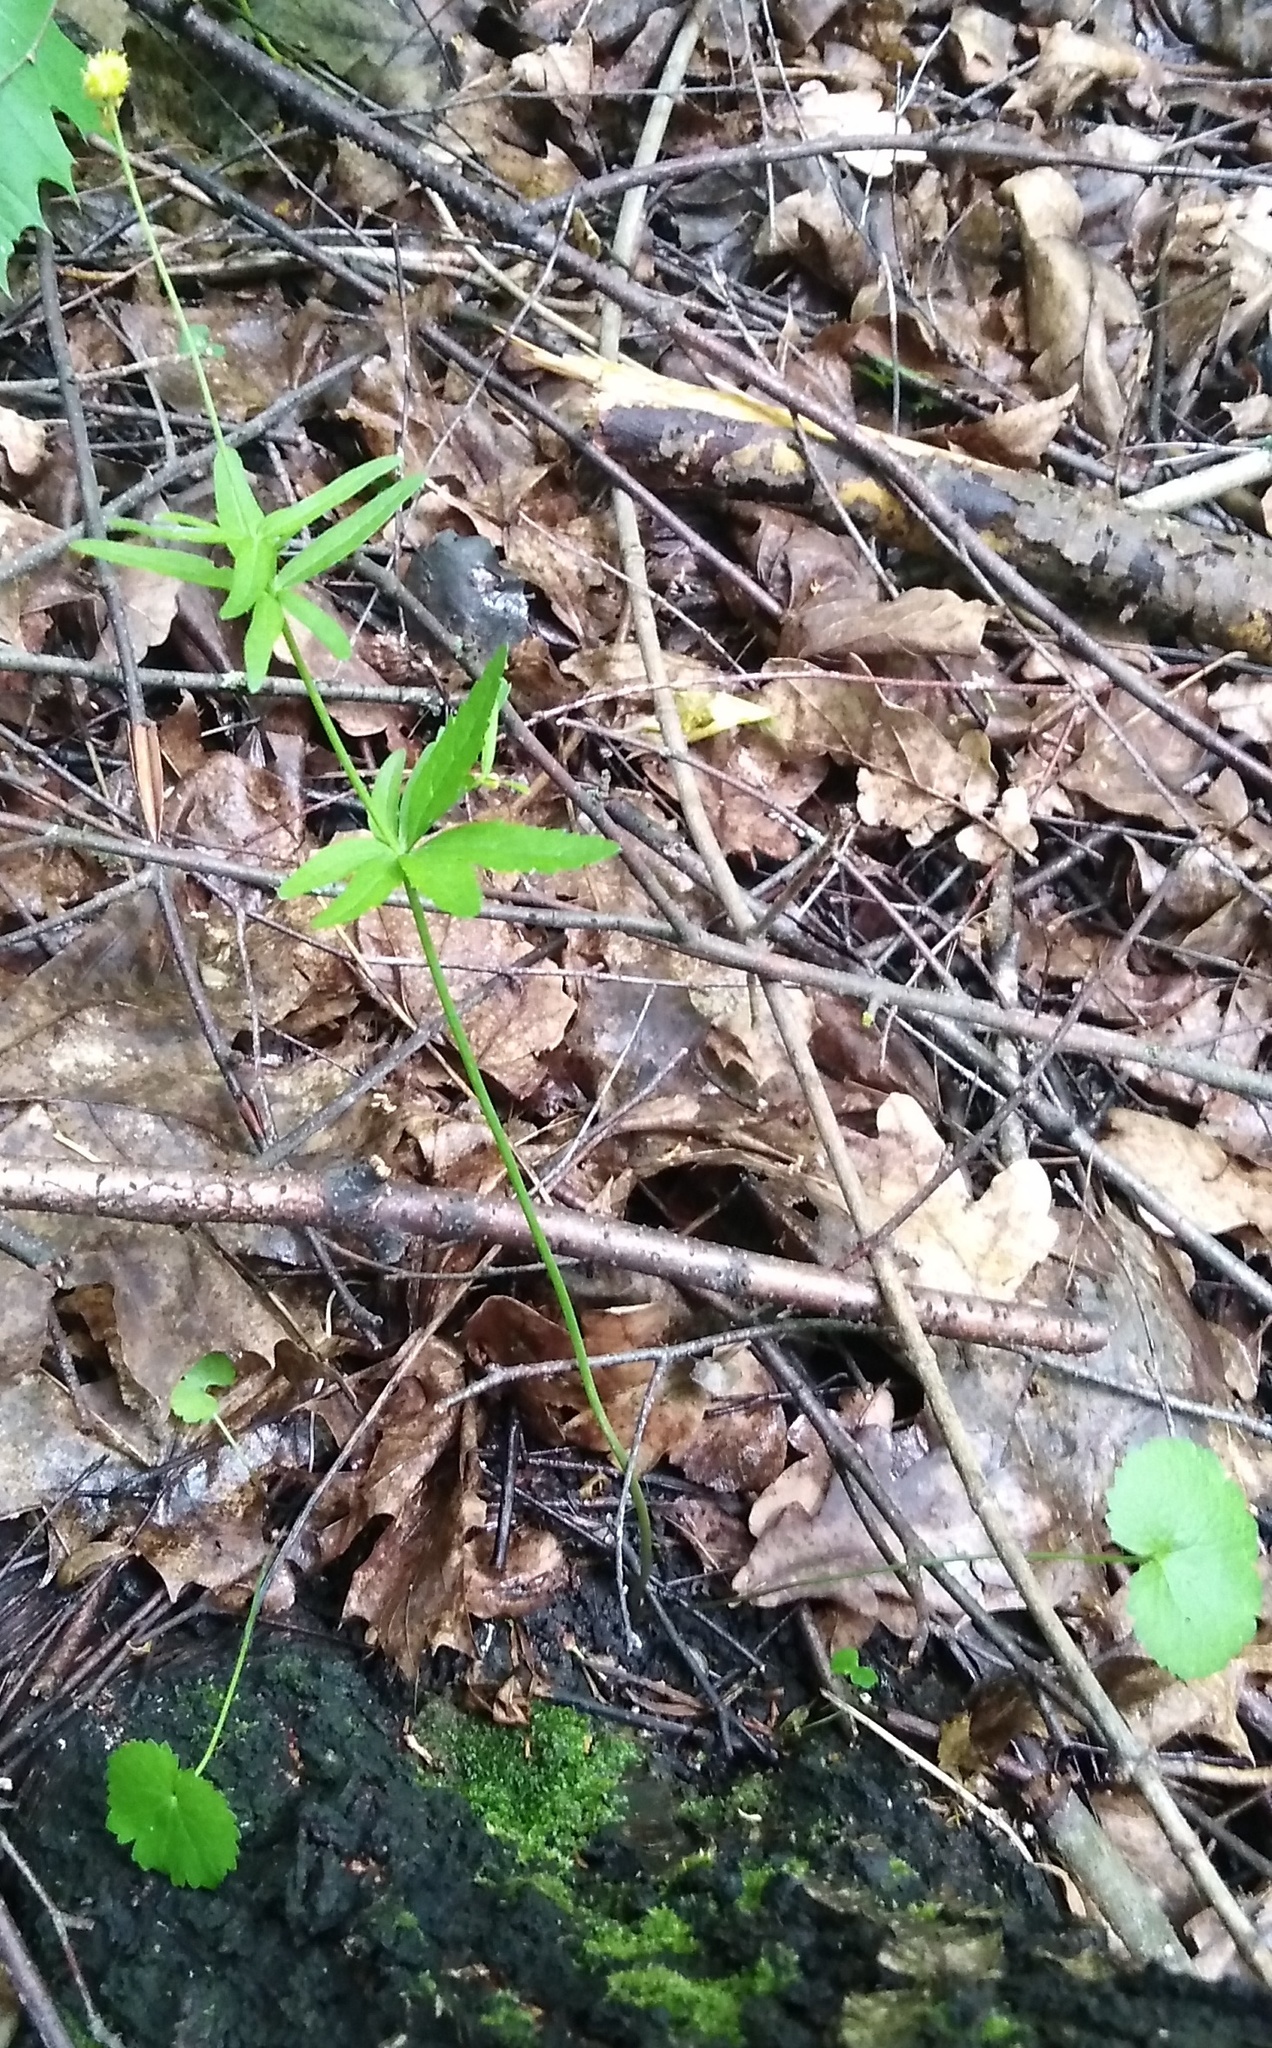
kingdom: Plantae
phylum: Tracheophyta
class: Magnoliopsida
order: Ranunculales
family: Ranunculaceae
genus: Ranunculus
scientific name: Ranunculus cassubicus
